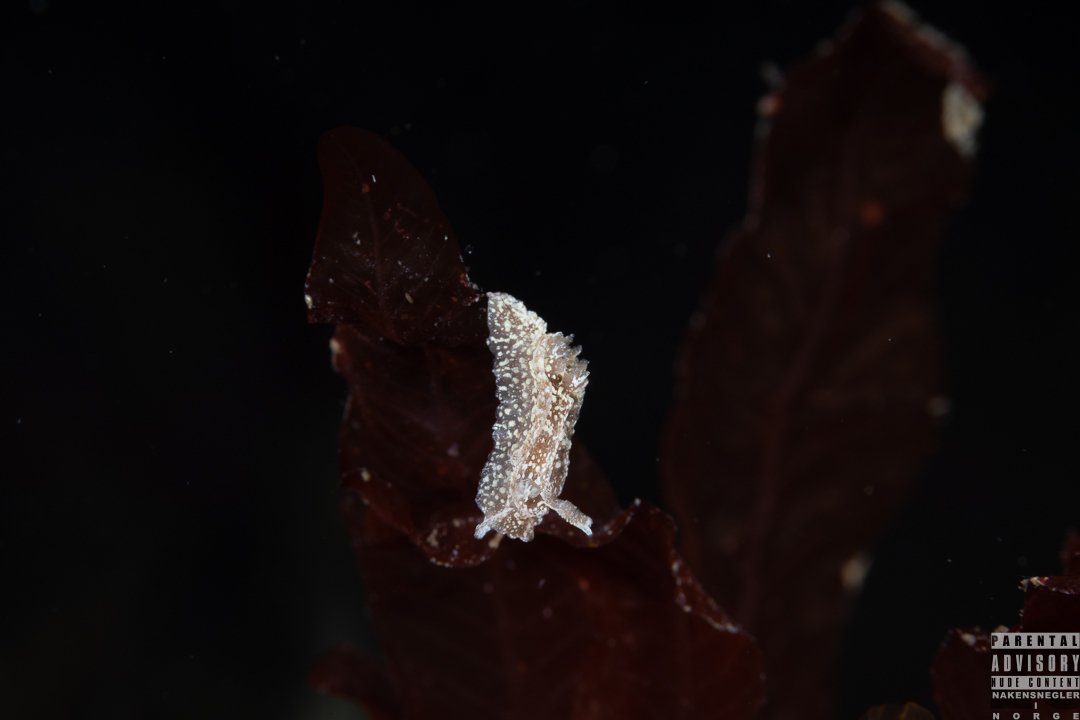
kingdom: Animalia
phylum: Mollusca
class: Gastropoda
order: Nudibranchia
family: Goniodorididae
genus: Pelagella
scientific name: Pelagella castanea
